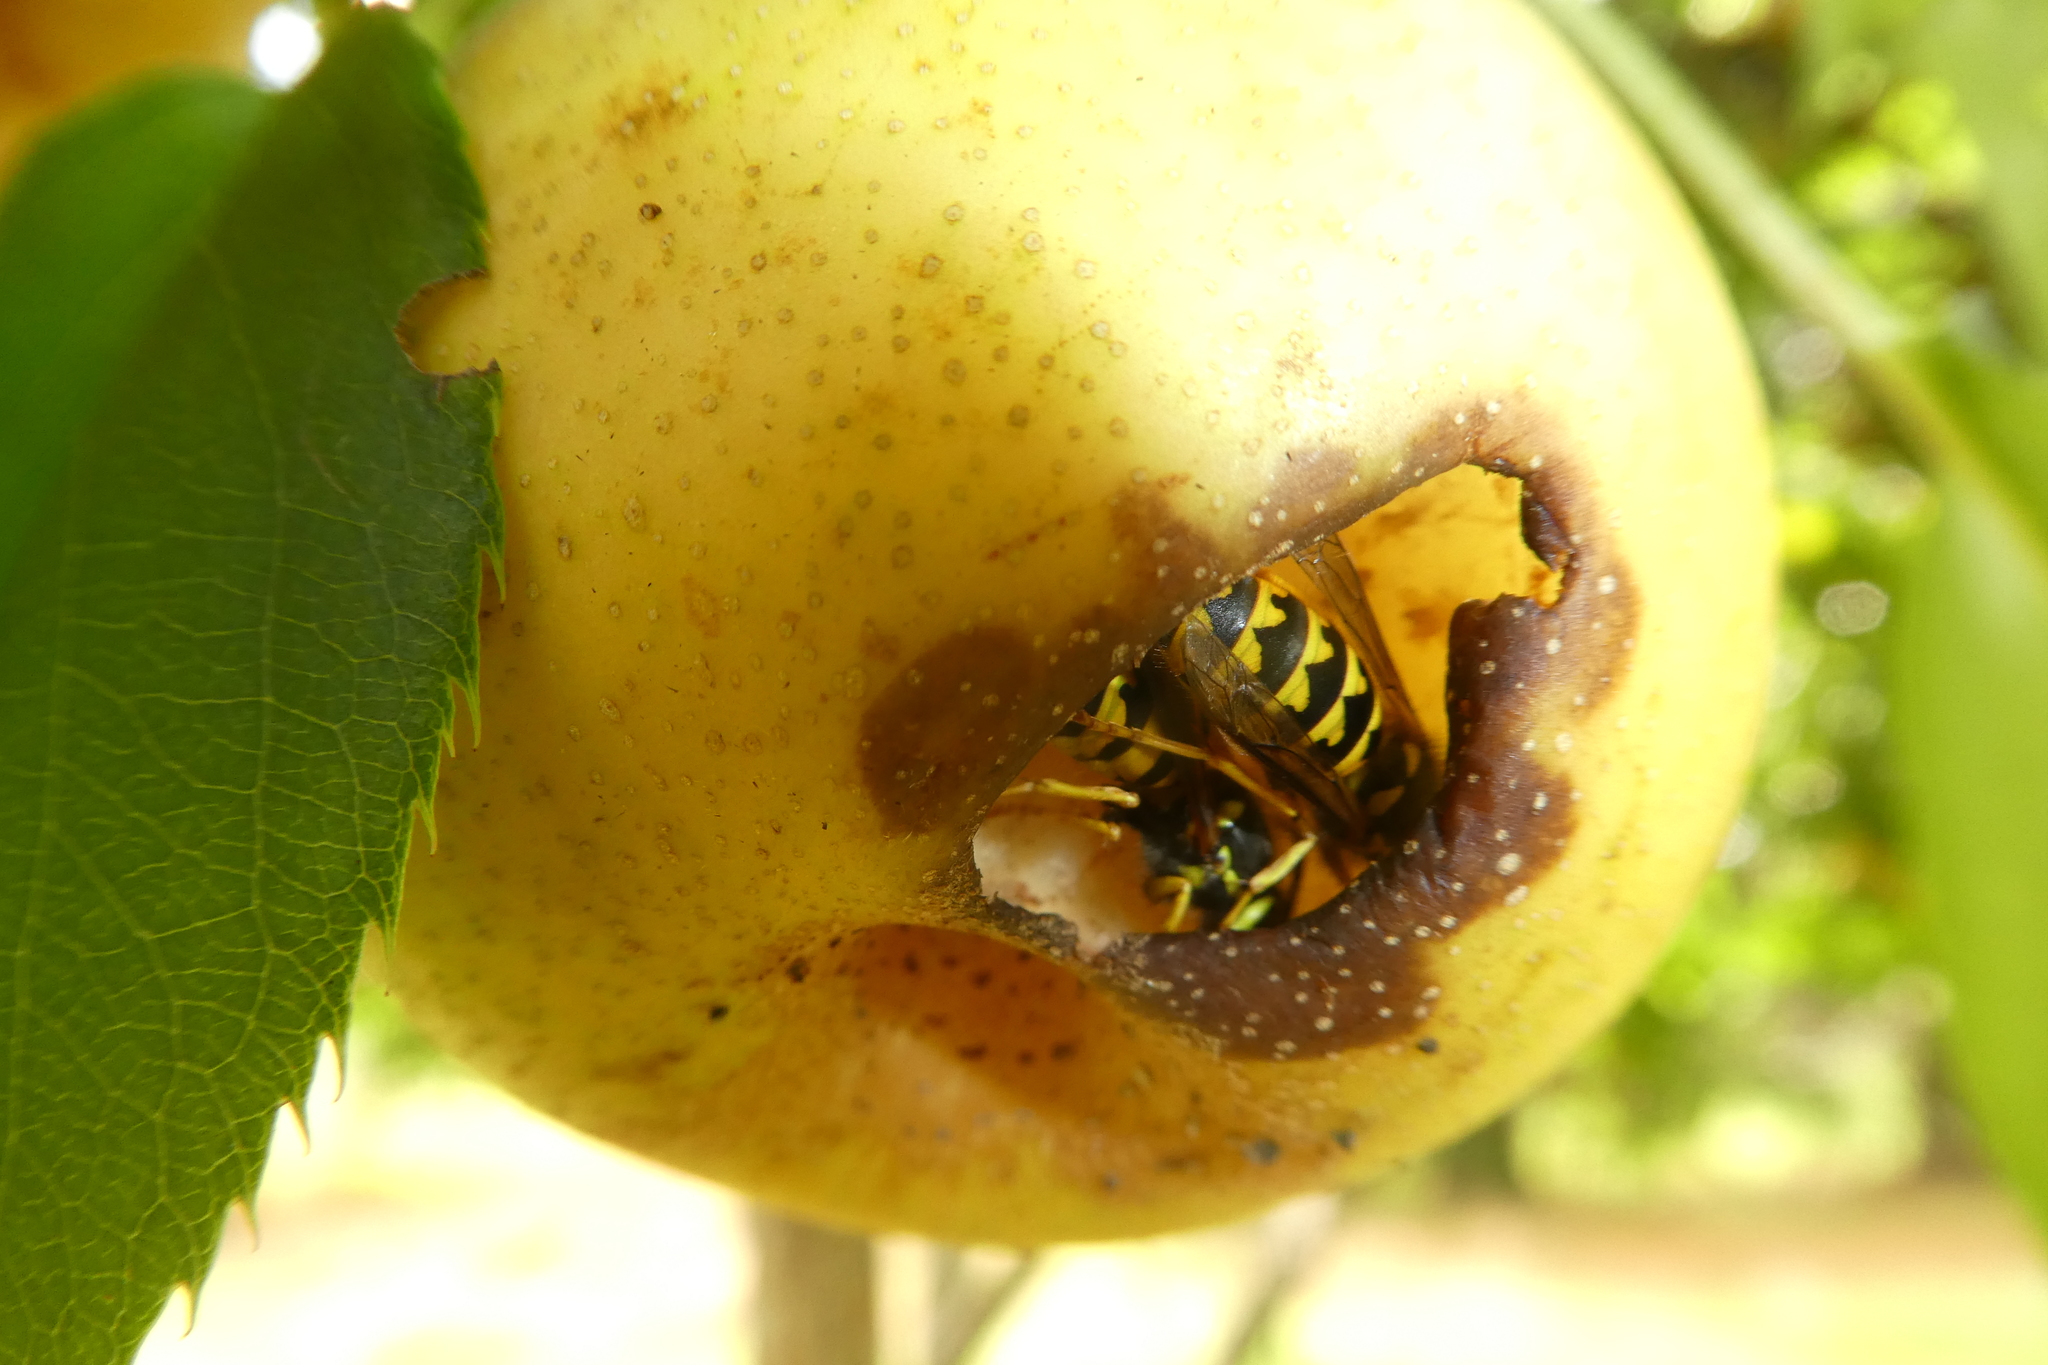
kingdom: Animalia
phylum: Arthropoda
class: Insecta
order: Hymenoptera
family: Vespidae
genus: Vespula
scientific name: Vespula pensylvanica
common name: Western yellowjacket
